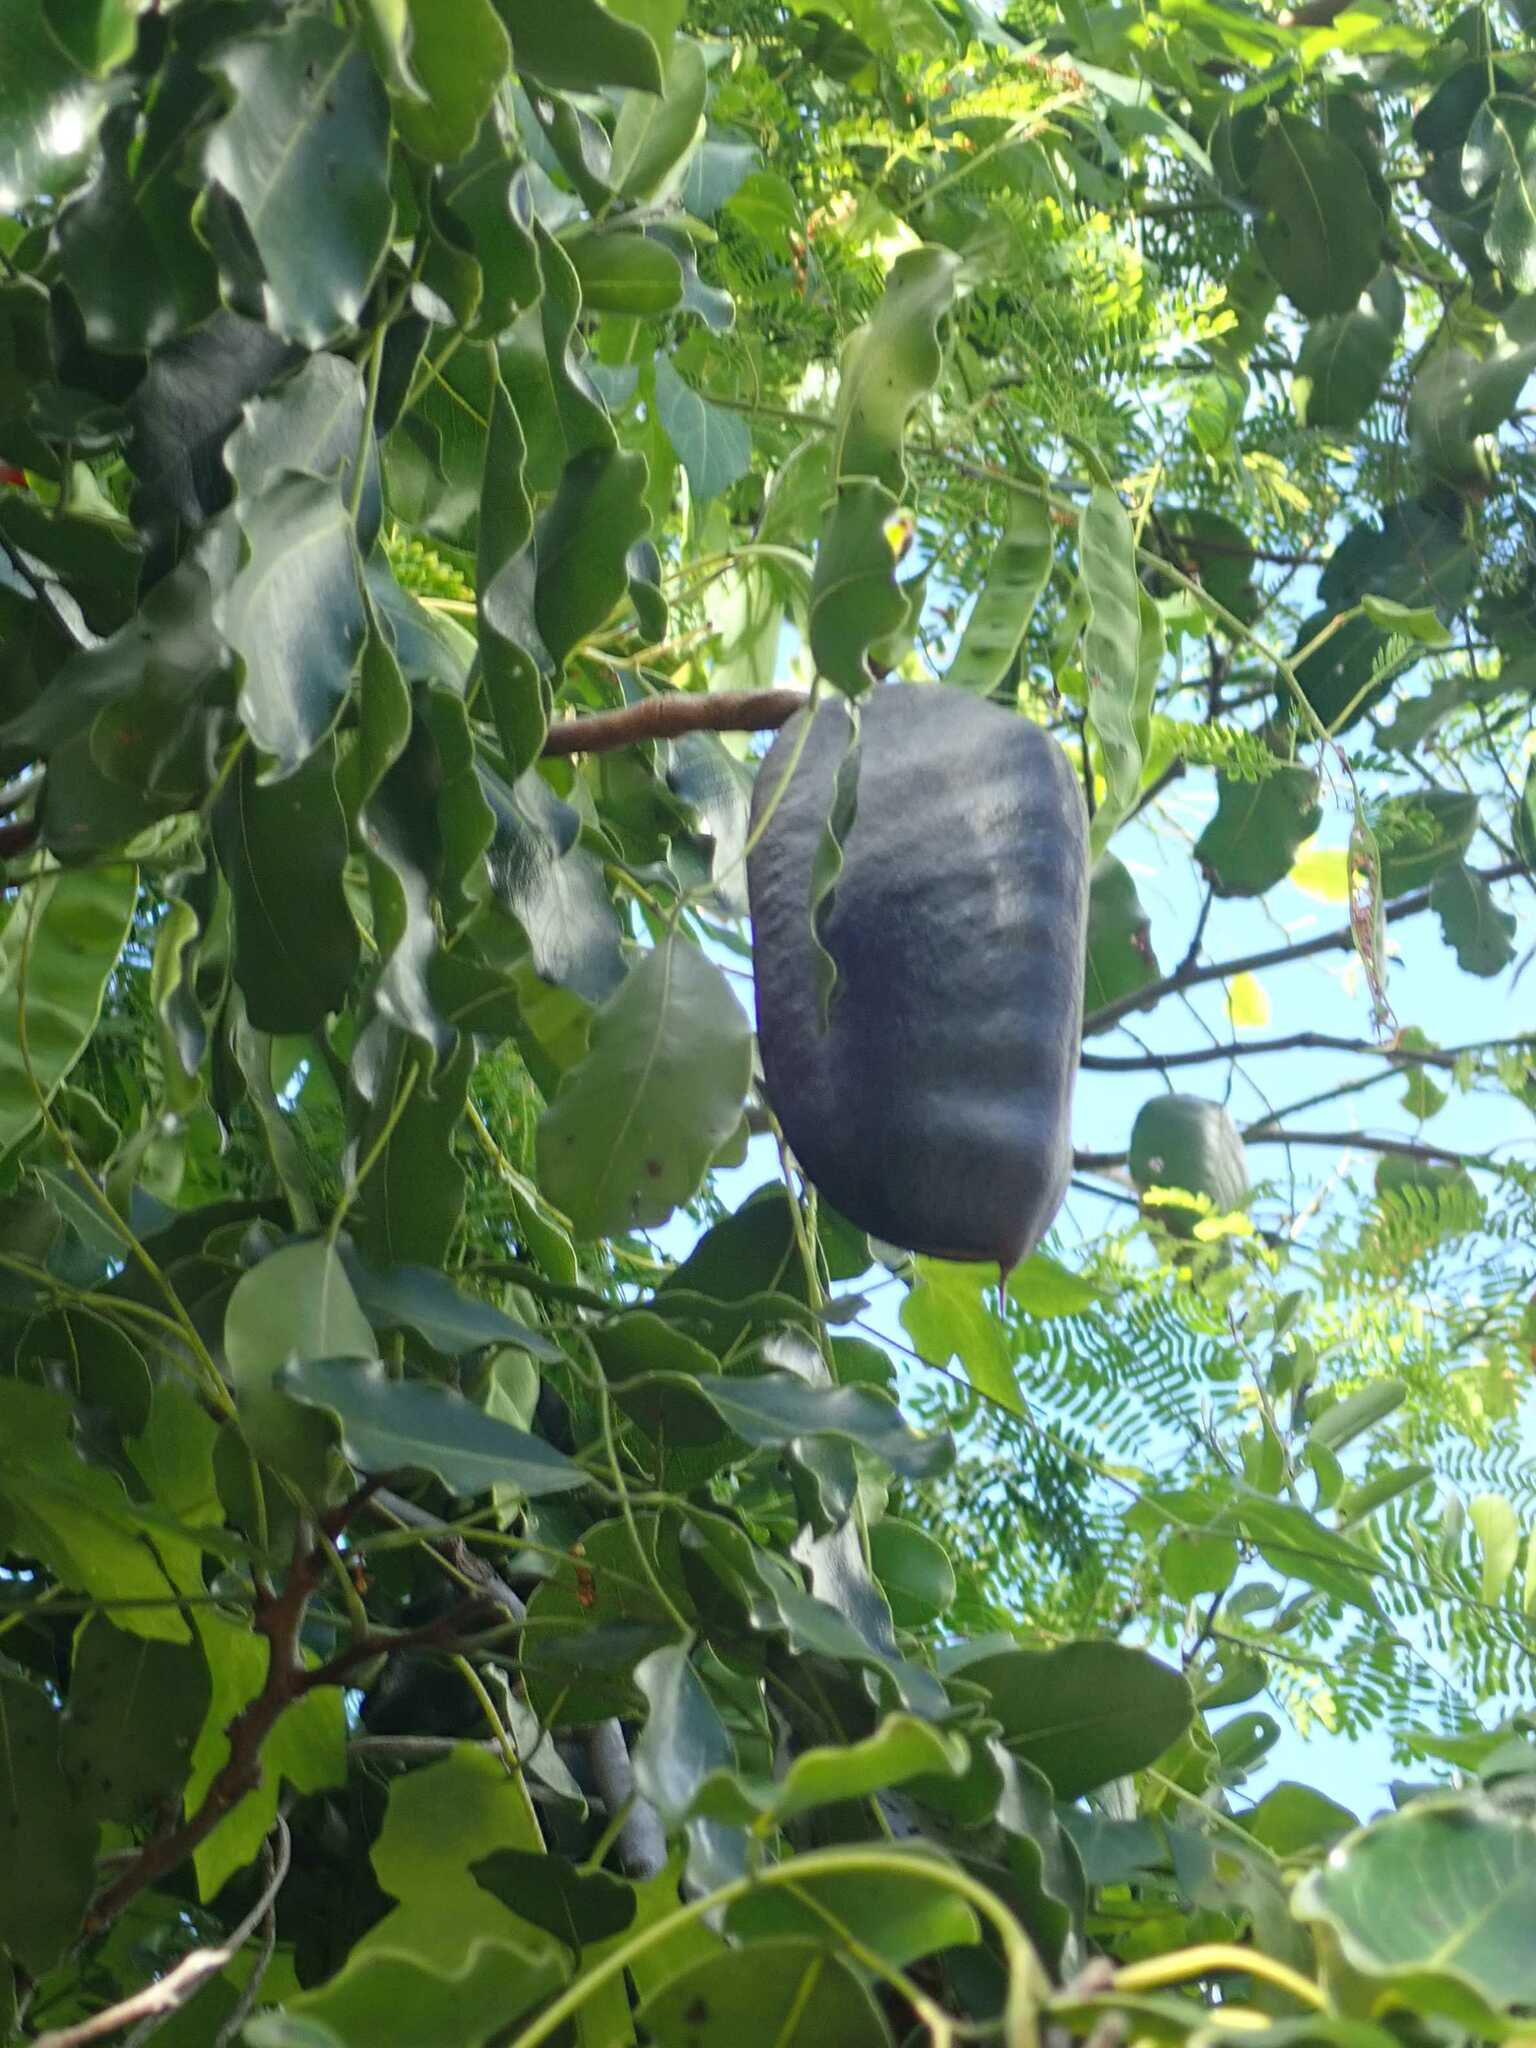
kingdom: Plantae
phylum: Tracheophyta
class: Magnoliopsida
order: Fabales
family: Fabaceae
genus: Afzelia
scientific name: Afzelia quanzensis
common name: Pod mahogany
